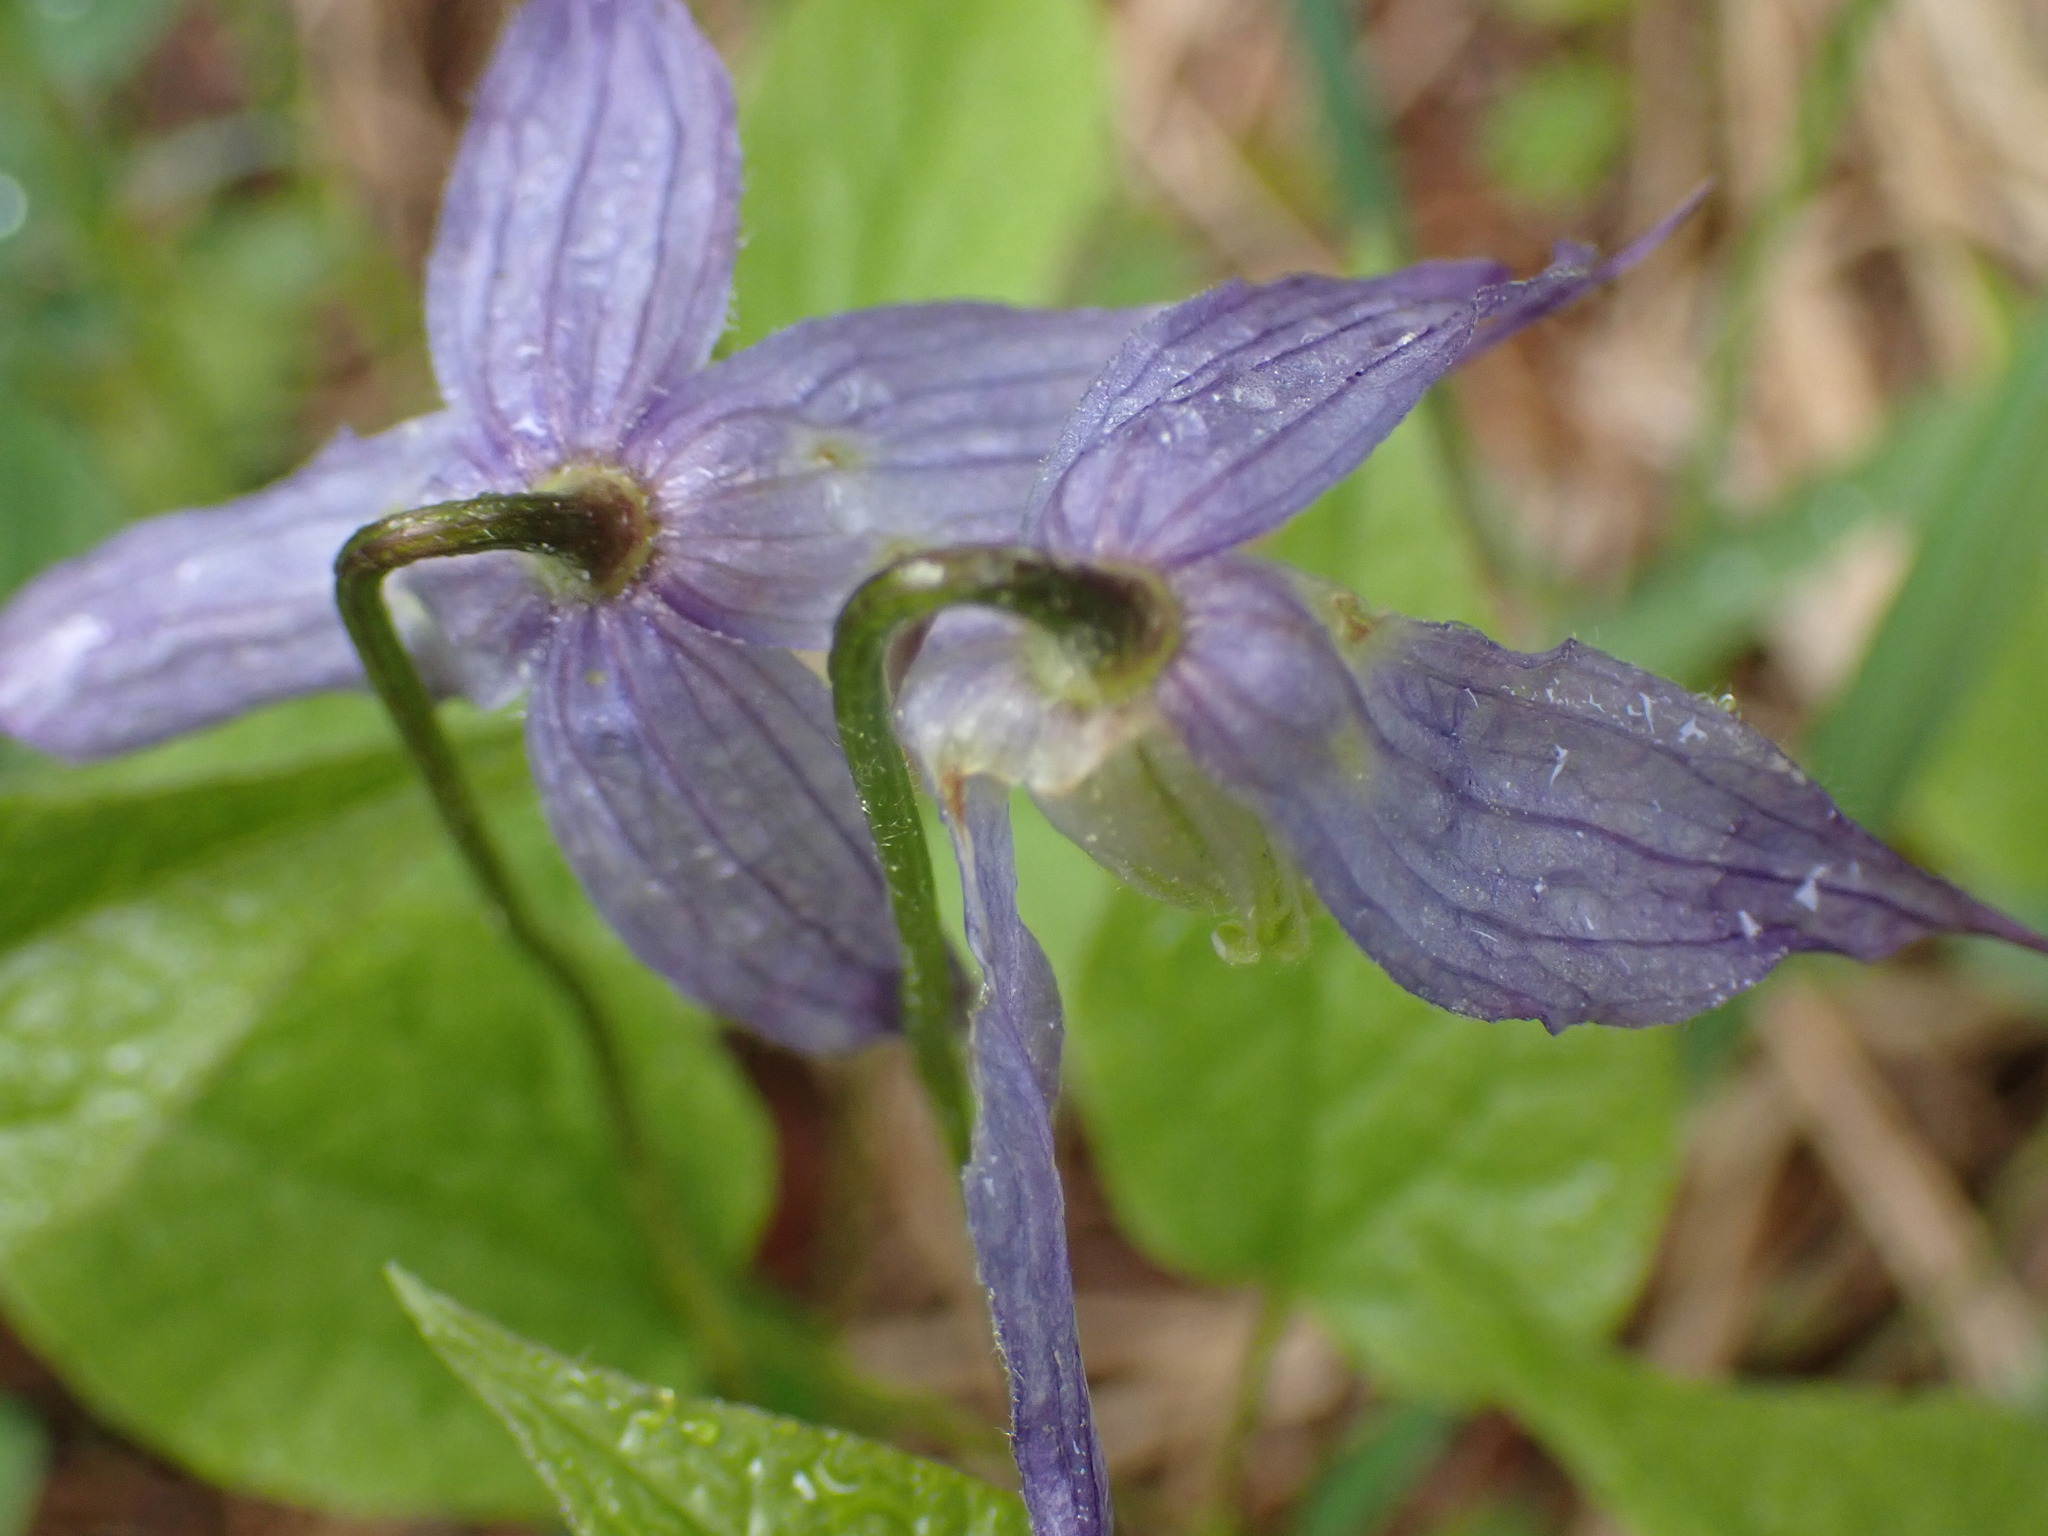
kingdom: Plantae
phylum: Tracheophyta
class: Magnoliopsida
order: Ranunculales
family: Ranunculaceae
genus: Clematis
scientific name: Clematis occidentalis
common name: Purple clematis
